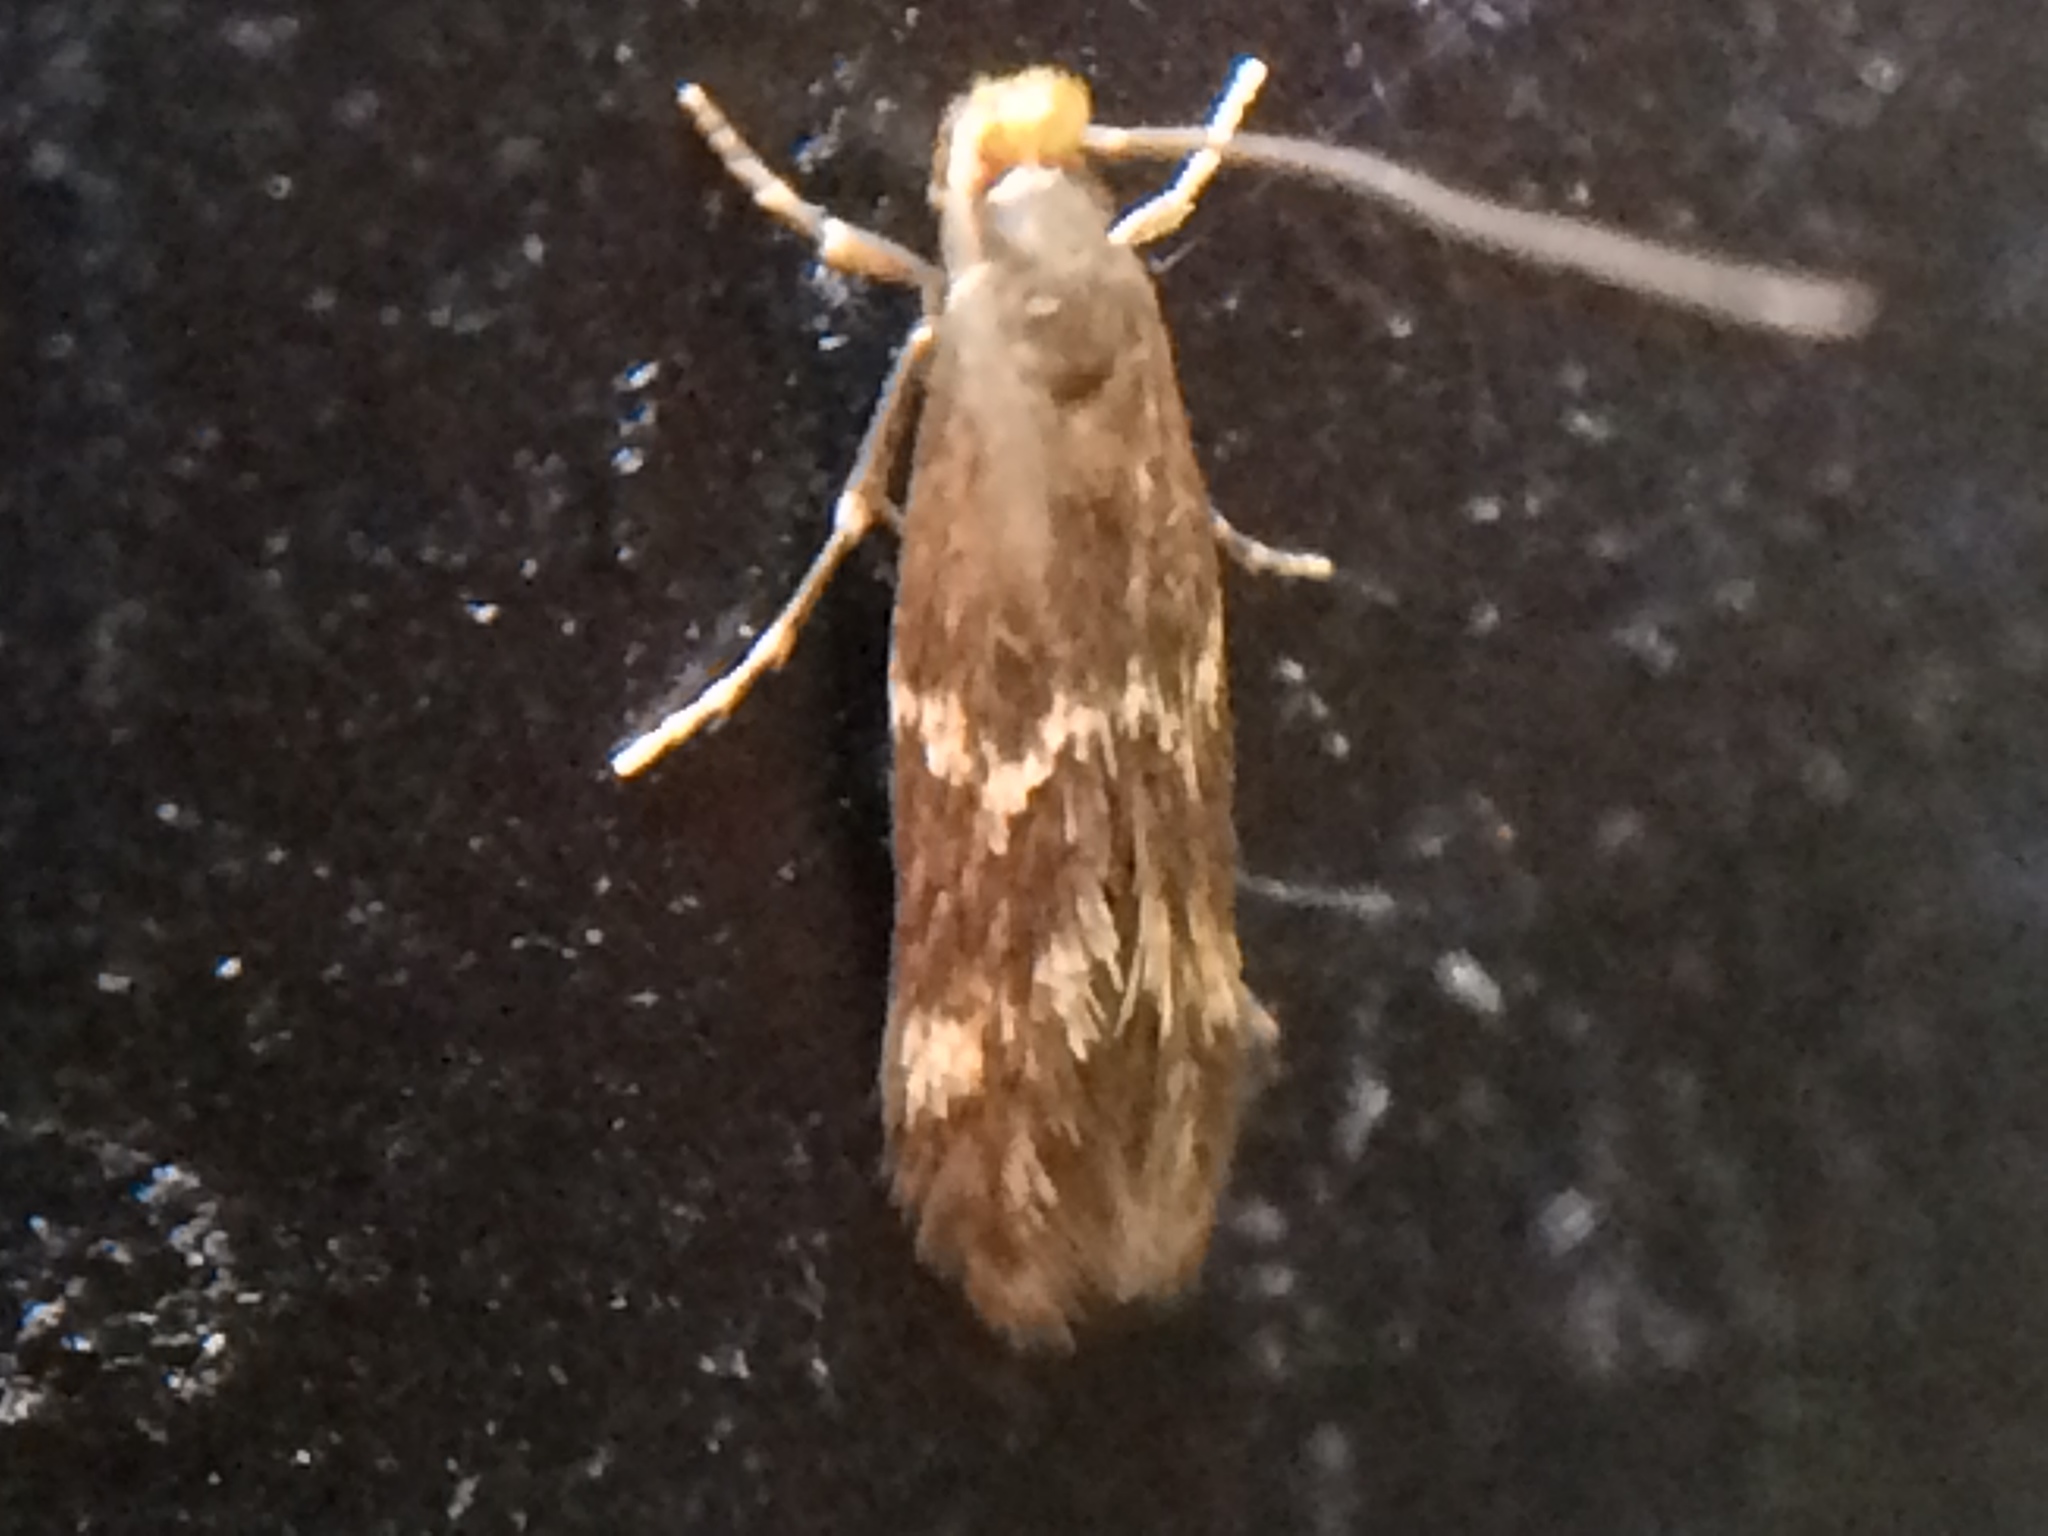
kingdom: Animalia
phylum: Arthropoda
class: Insecta
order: Lepidoptera
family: Tineidae
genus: Oinophila
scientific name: Oinophila v-flava
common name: Yellow v moth
